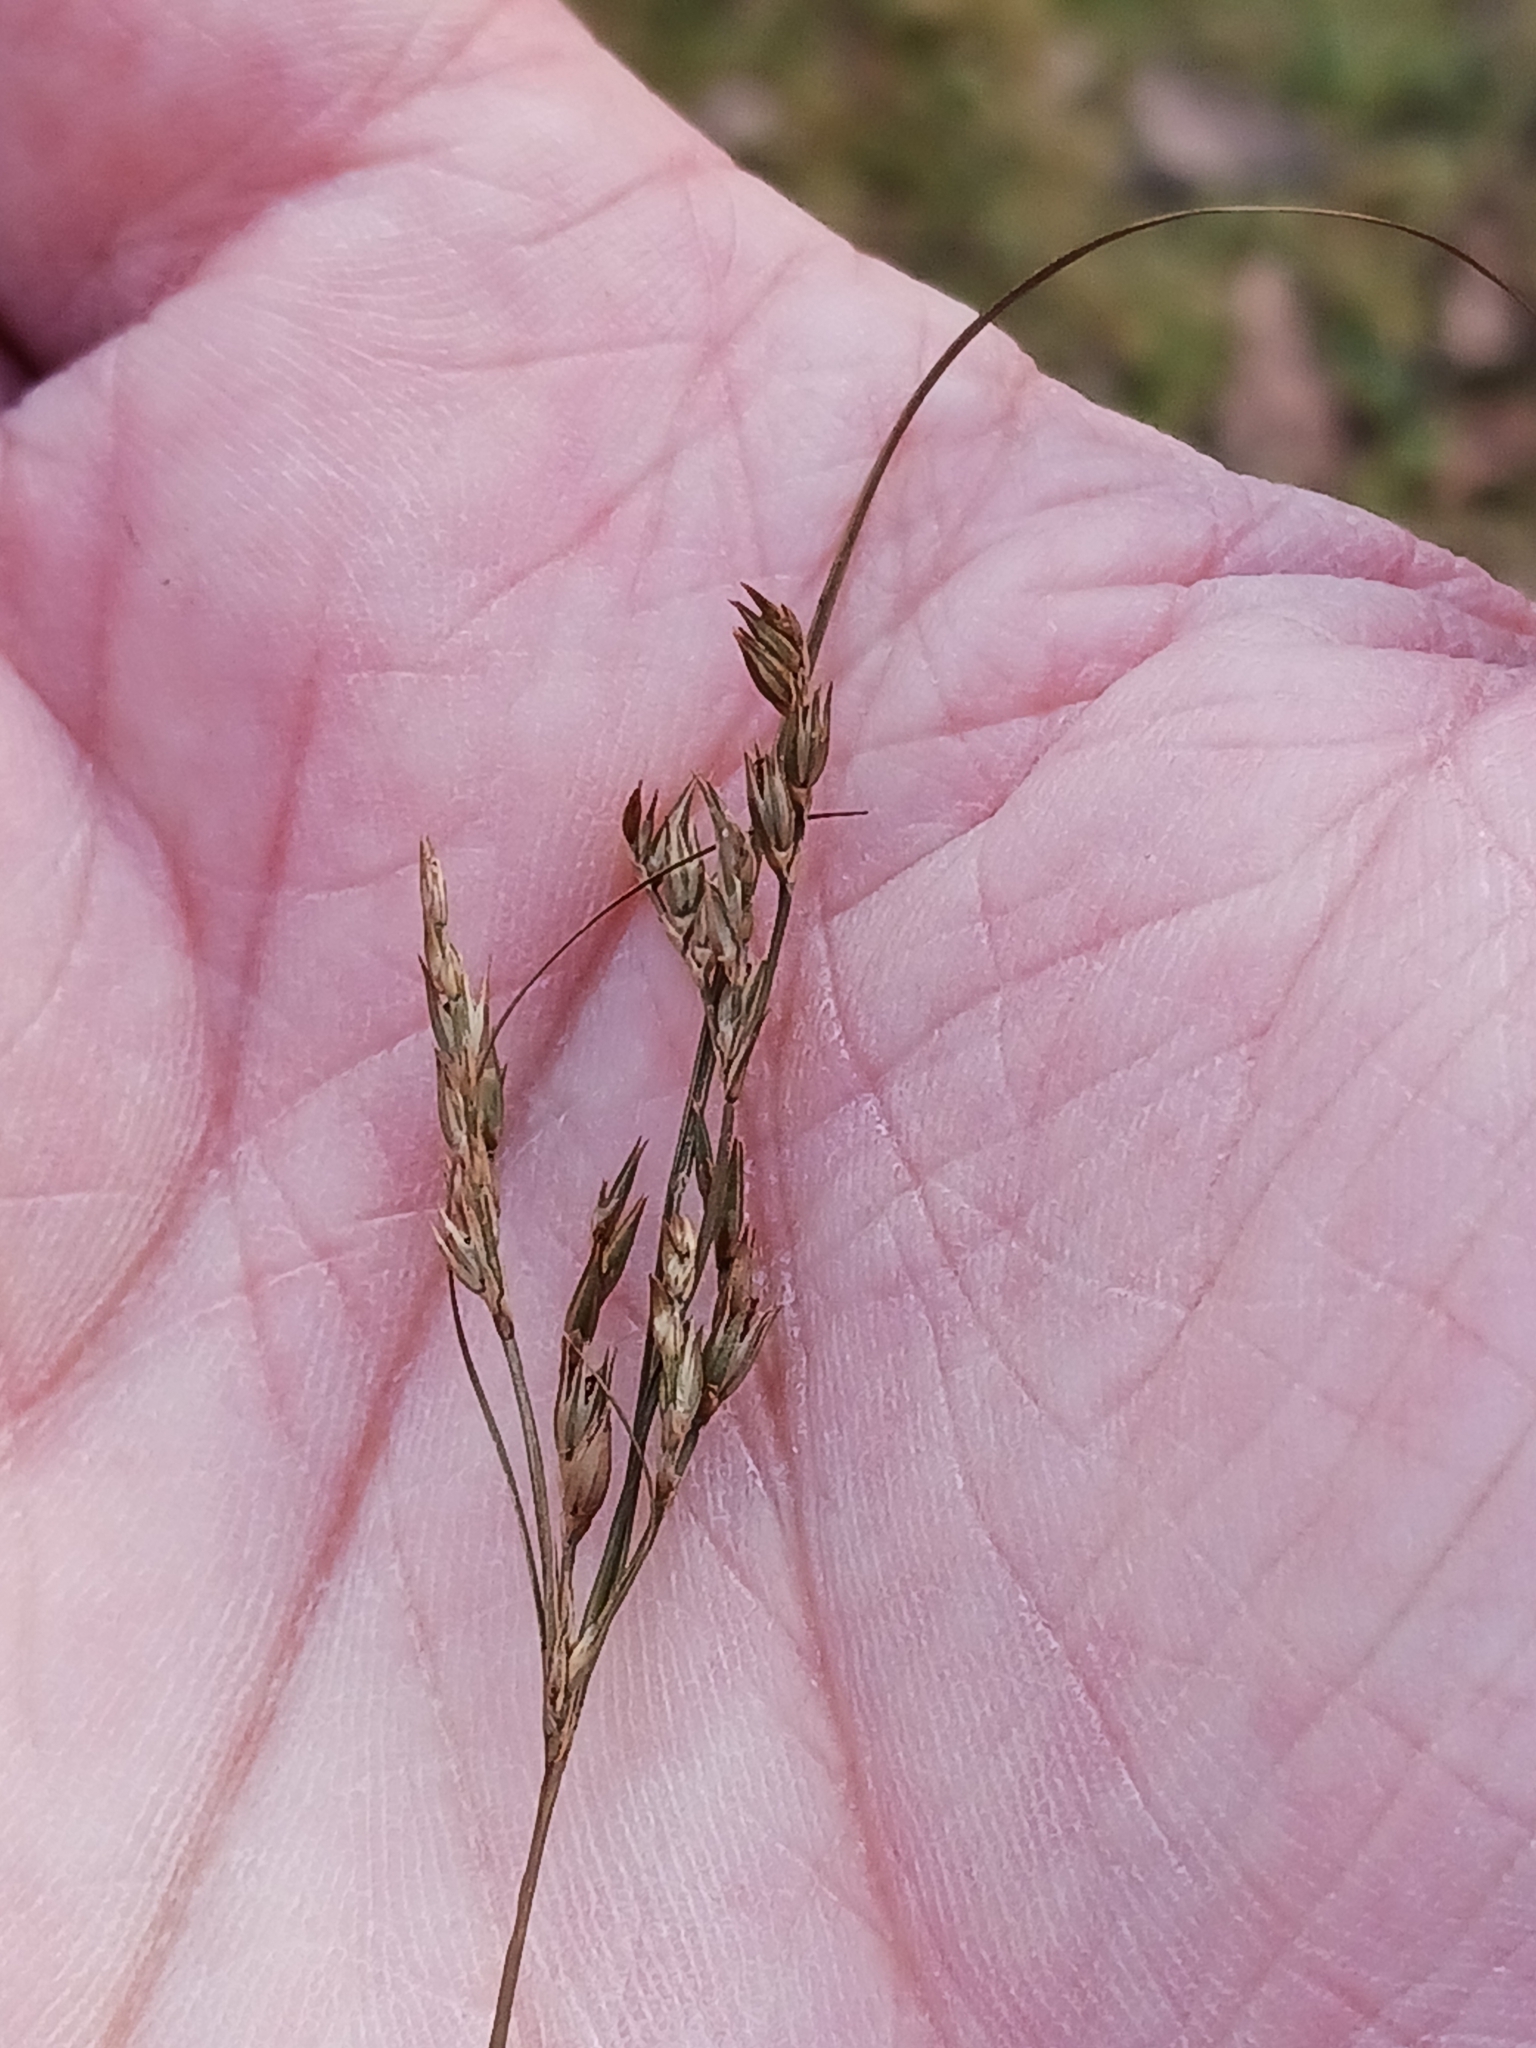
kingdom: Plantae
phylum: Tracheophyta
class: Liliopsida
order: Poales
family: Juncaceae
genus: Juncus
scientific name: Juncus tenuis
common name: Slender rush
